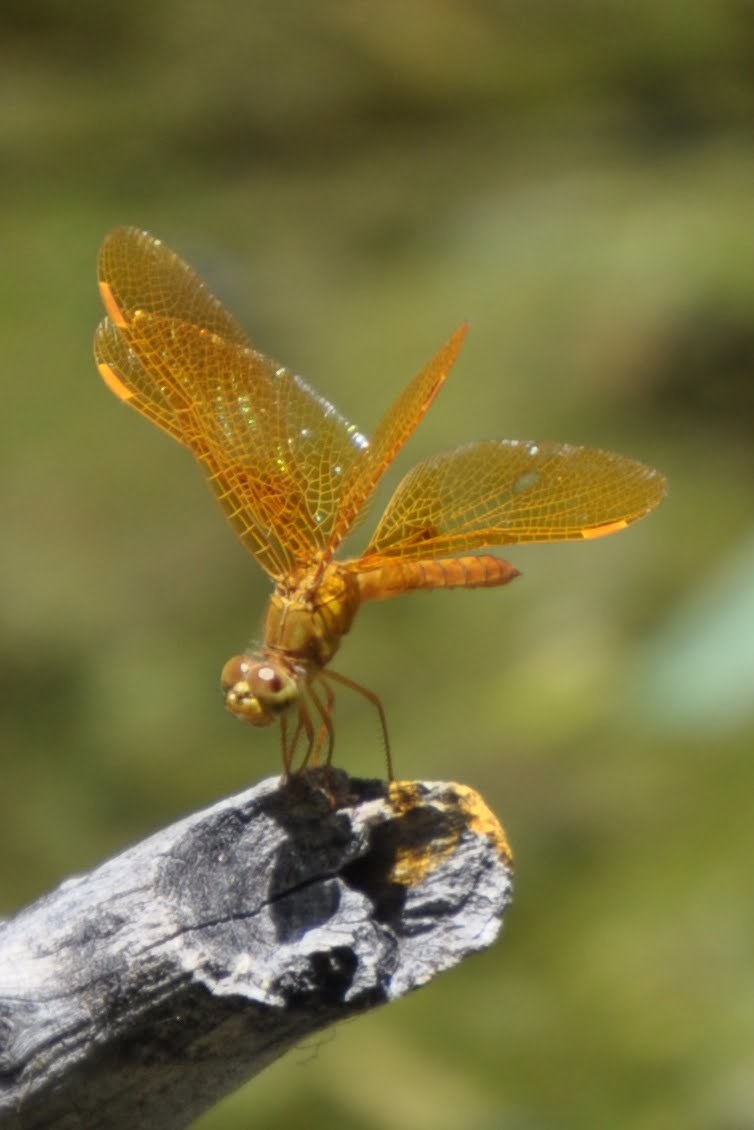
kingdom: Animalia
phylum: Arthropoda
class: Insecta
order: Odonata
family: Libellulidae
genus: Perithemis
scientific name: Perithemis intensa
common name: Mexican amberwing
